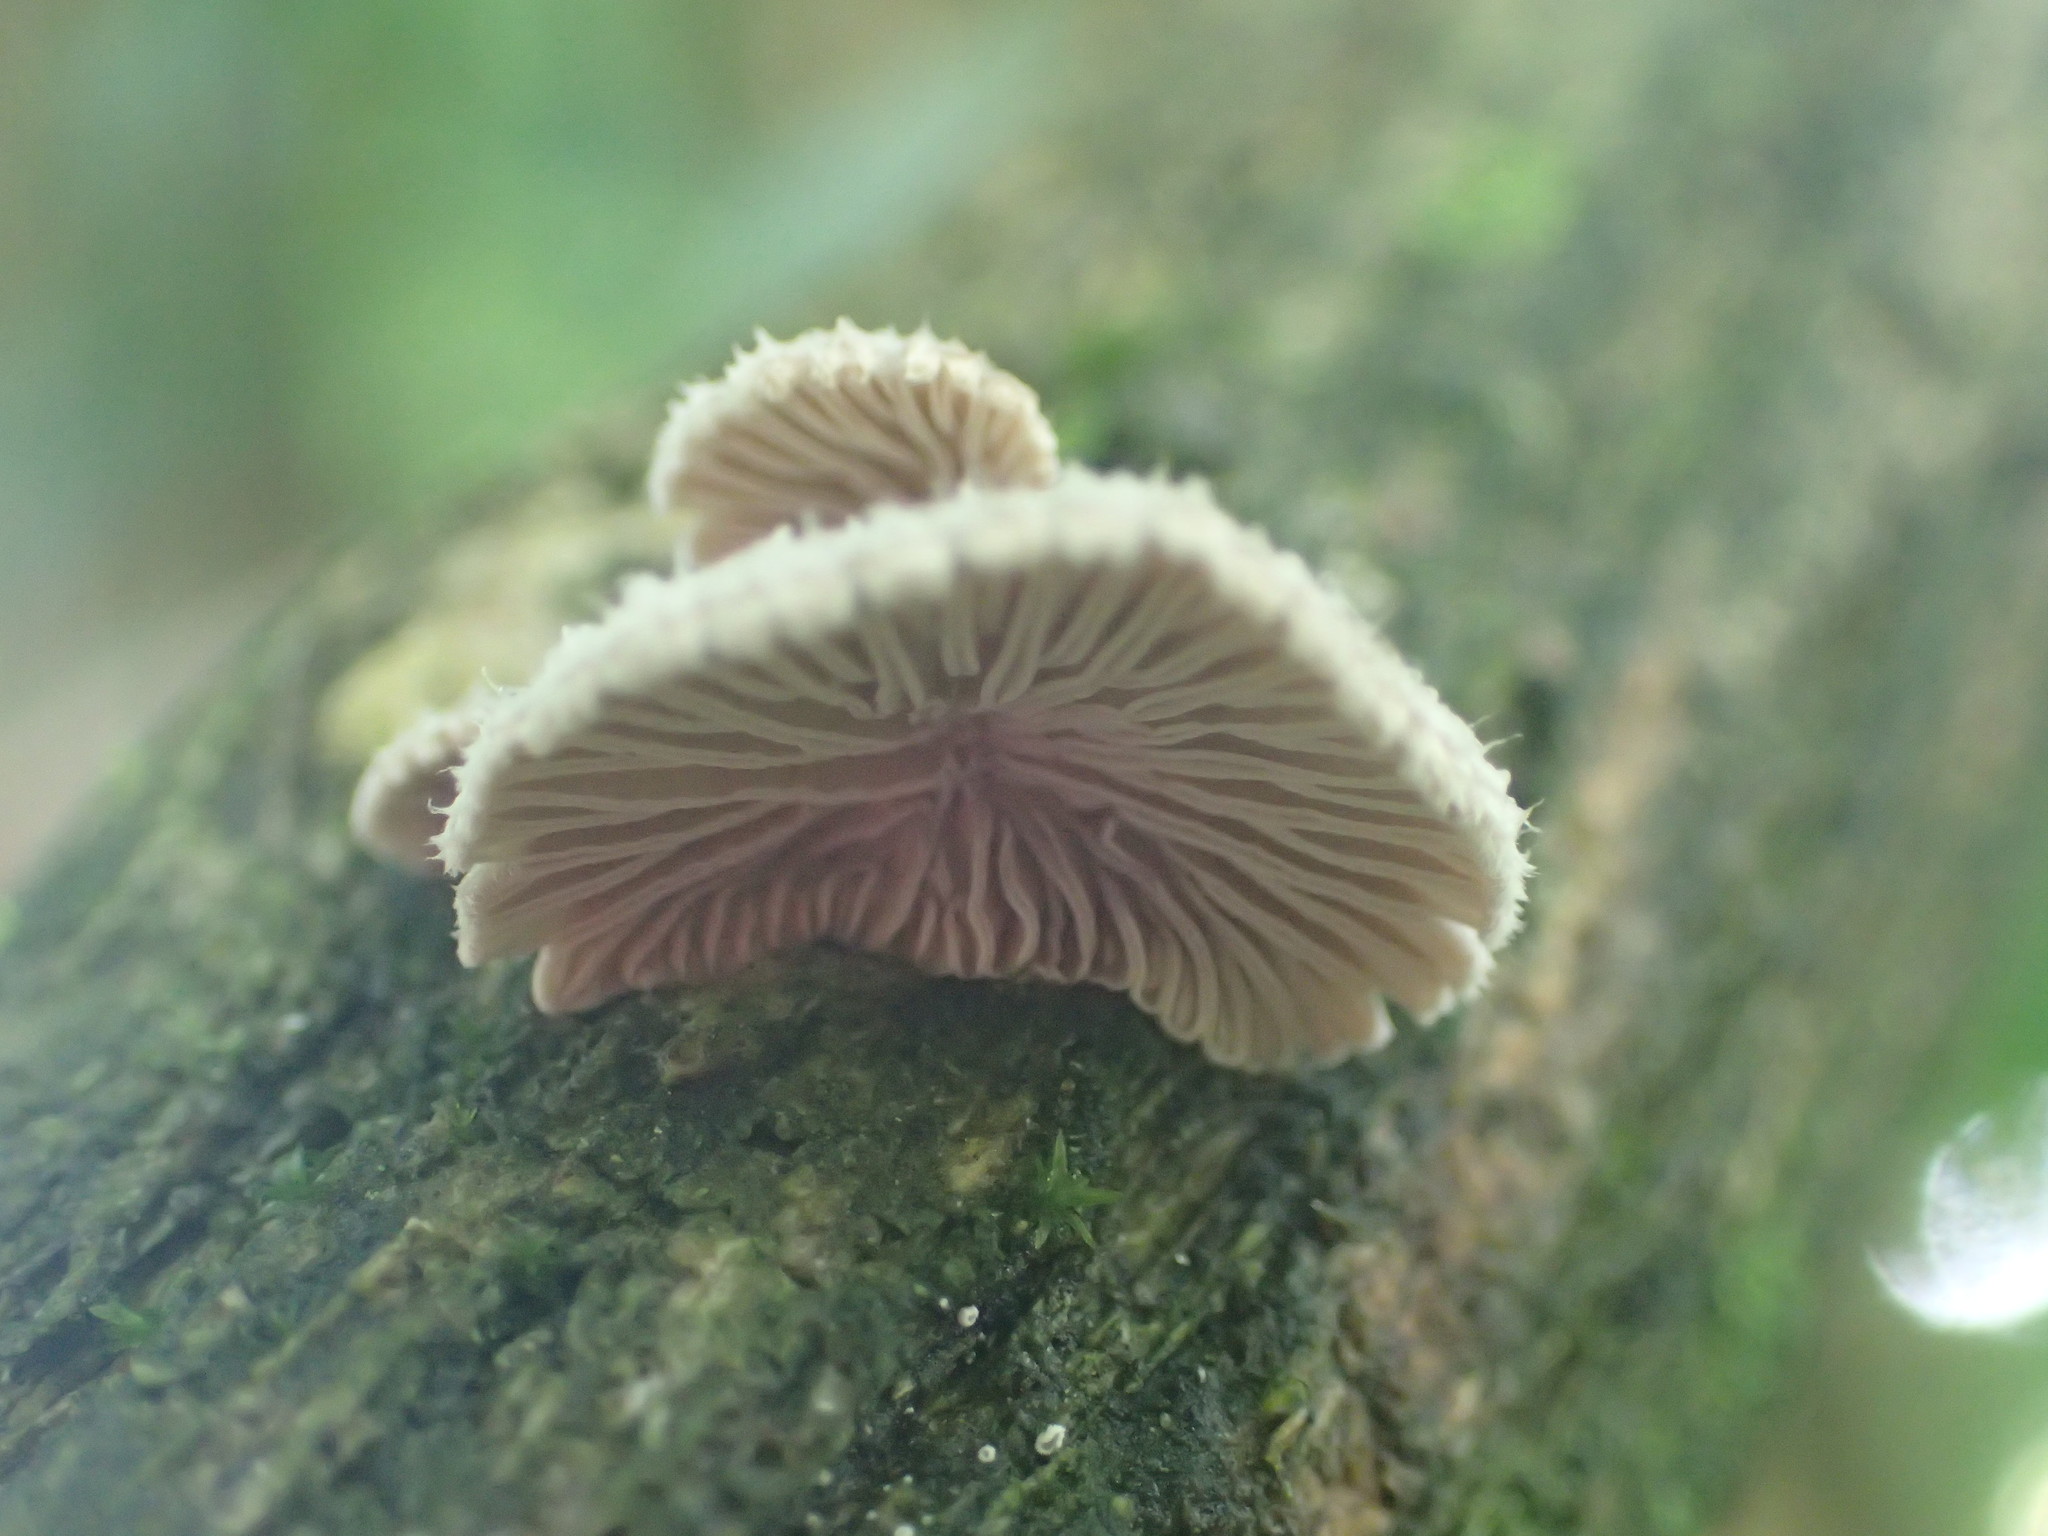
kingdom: Fungi
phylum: Basidiomycota
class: Agaricomycetes
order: Agaricales
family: Schizophyllaceae
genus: Schizophyllum
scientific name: Schizophyllum commune
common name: Common porecrust
